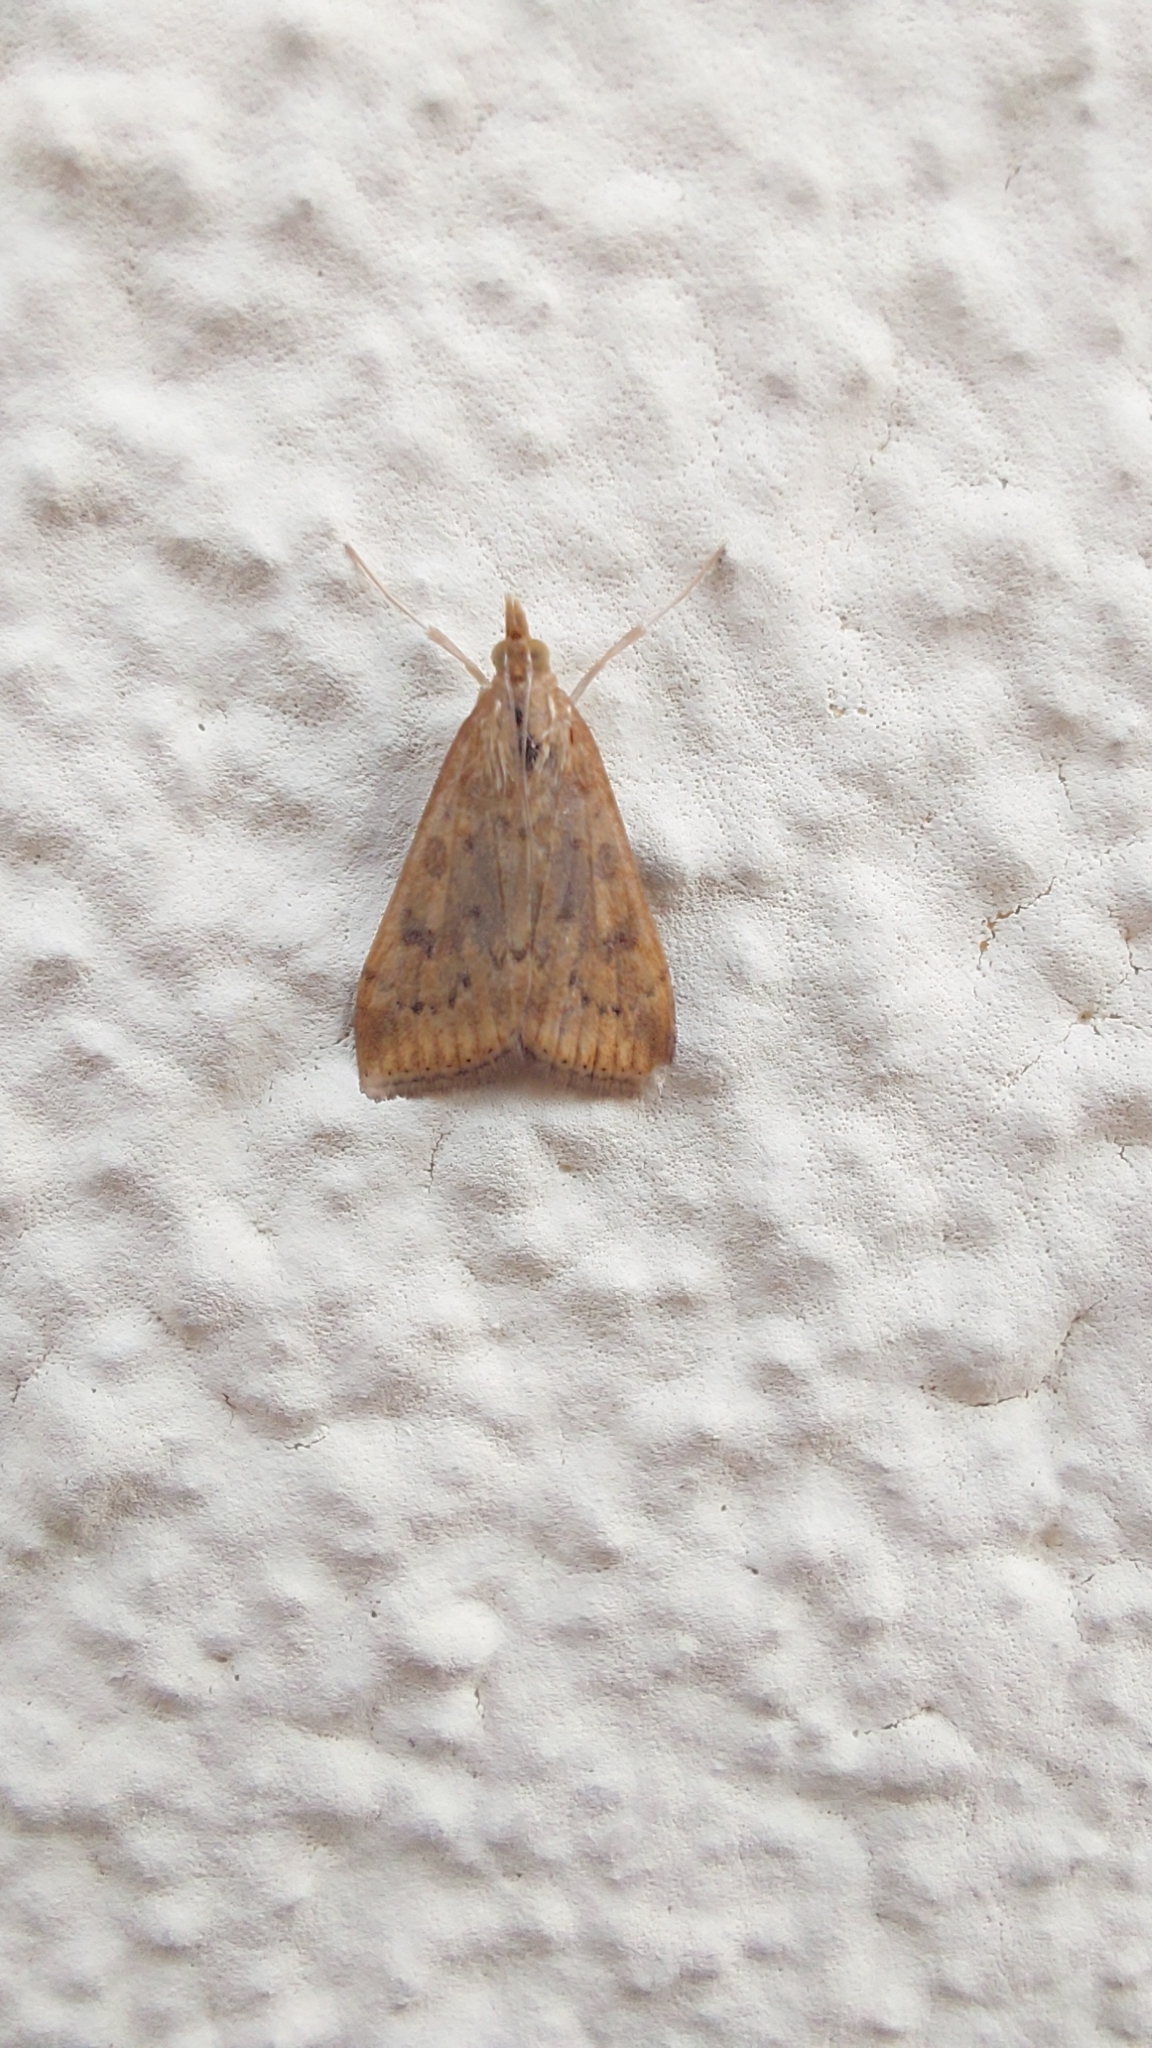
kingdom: Animalia
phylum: Arthropoda
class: Insecta
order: Lepidoptera
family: Crambidae
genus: Udea
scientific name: Udea ferrugalis
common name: Rusty dot
